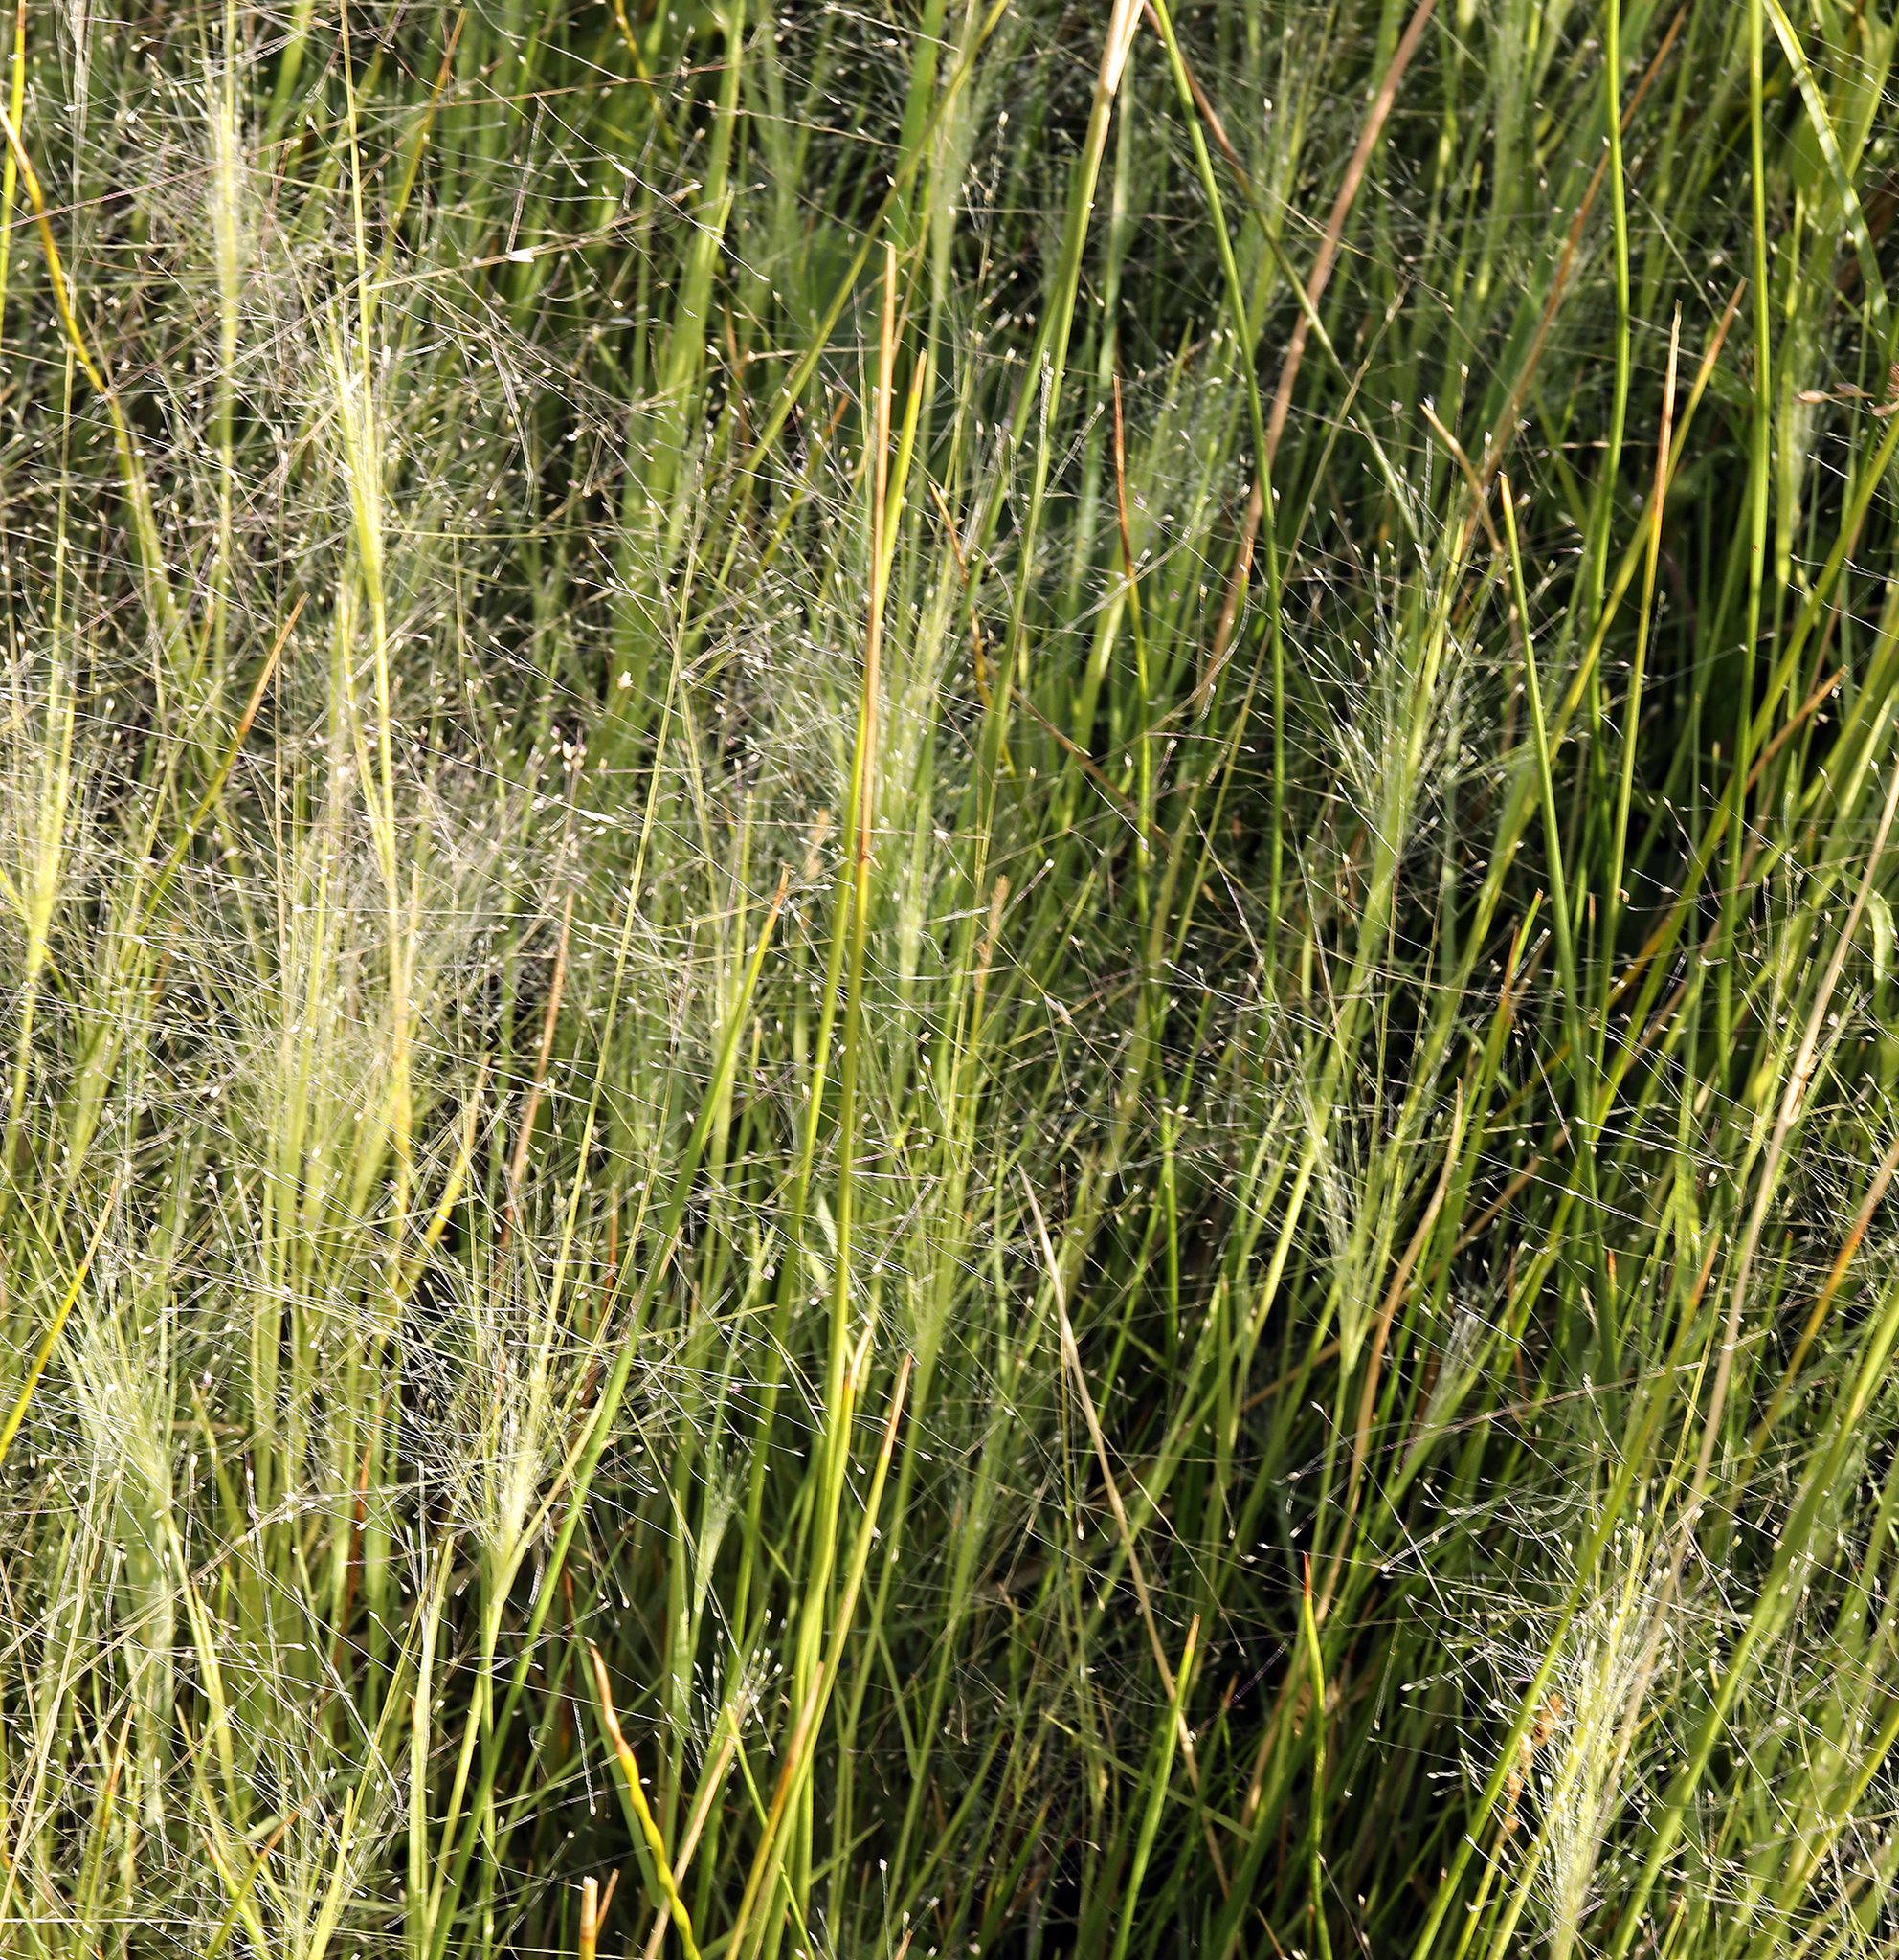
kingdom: Plantae
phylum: Tracheophyta
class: Liliopsida
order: Poales
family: Poaceae
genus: Muhlenbergia
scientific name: Muhlenbergia asperifolia
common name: Alkali muhly
